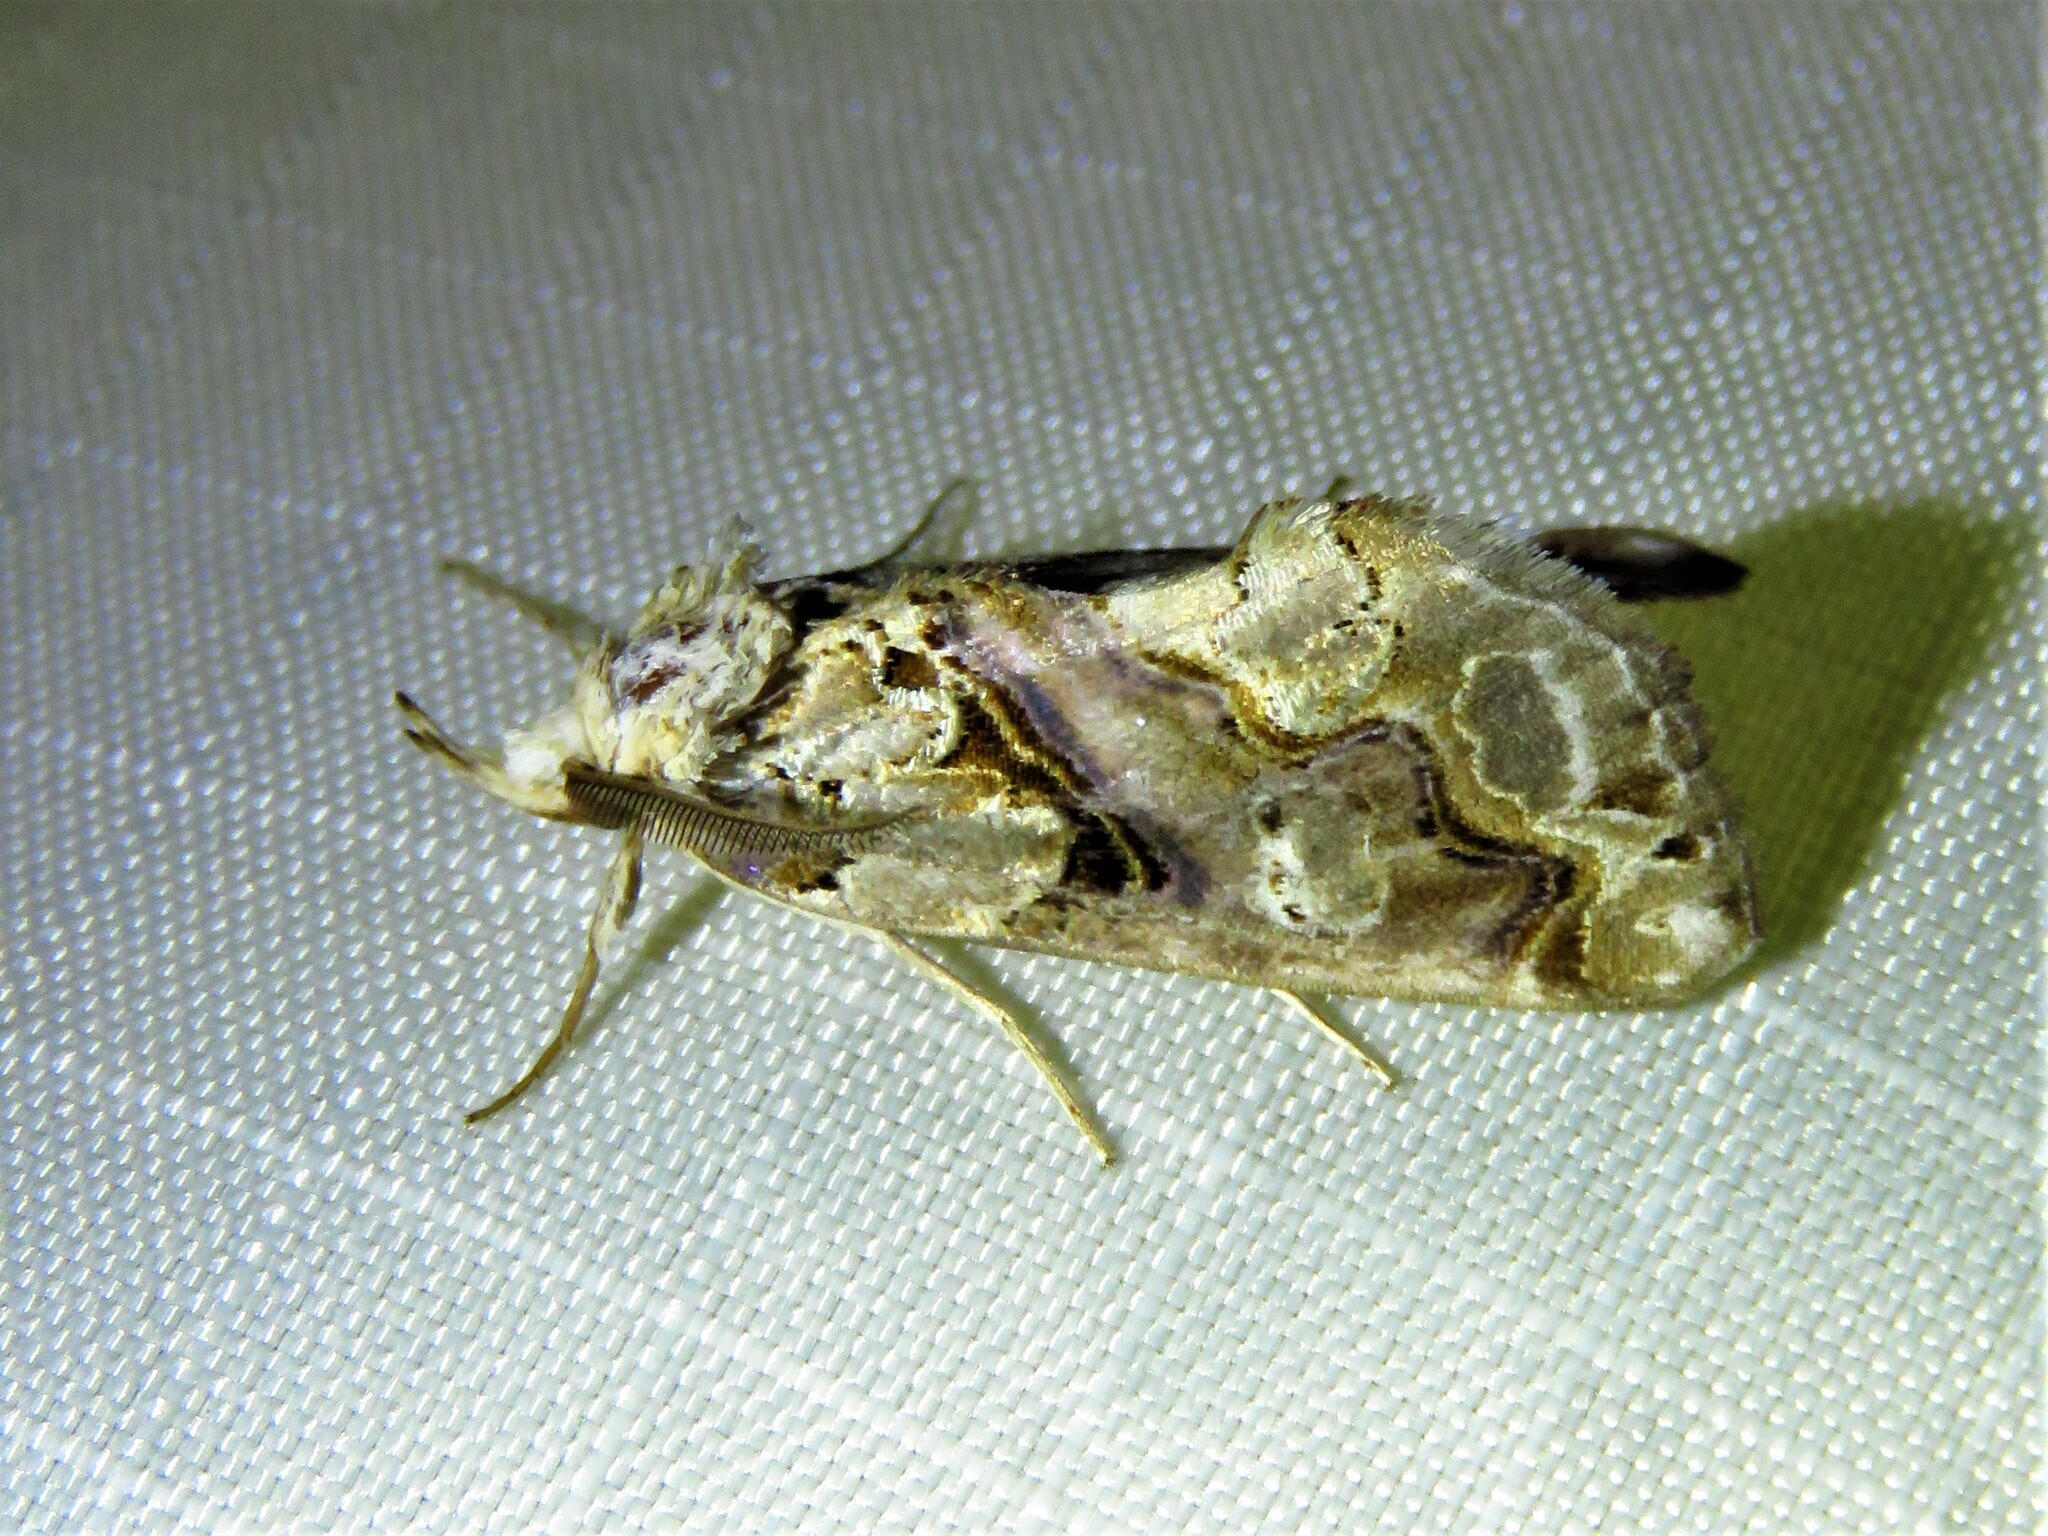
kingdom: Animalia
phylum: Arthropoda
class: Insecta
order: Lepidoptera
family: Erebidae
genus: Plusiodonta
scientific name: Plusiodonta compressipalpis
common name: Moonseed moth
